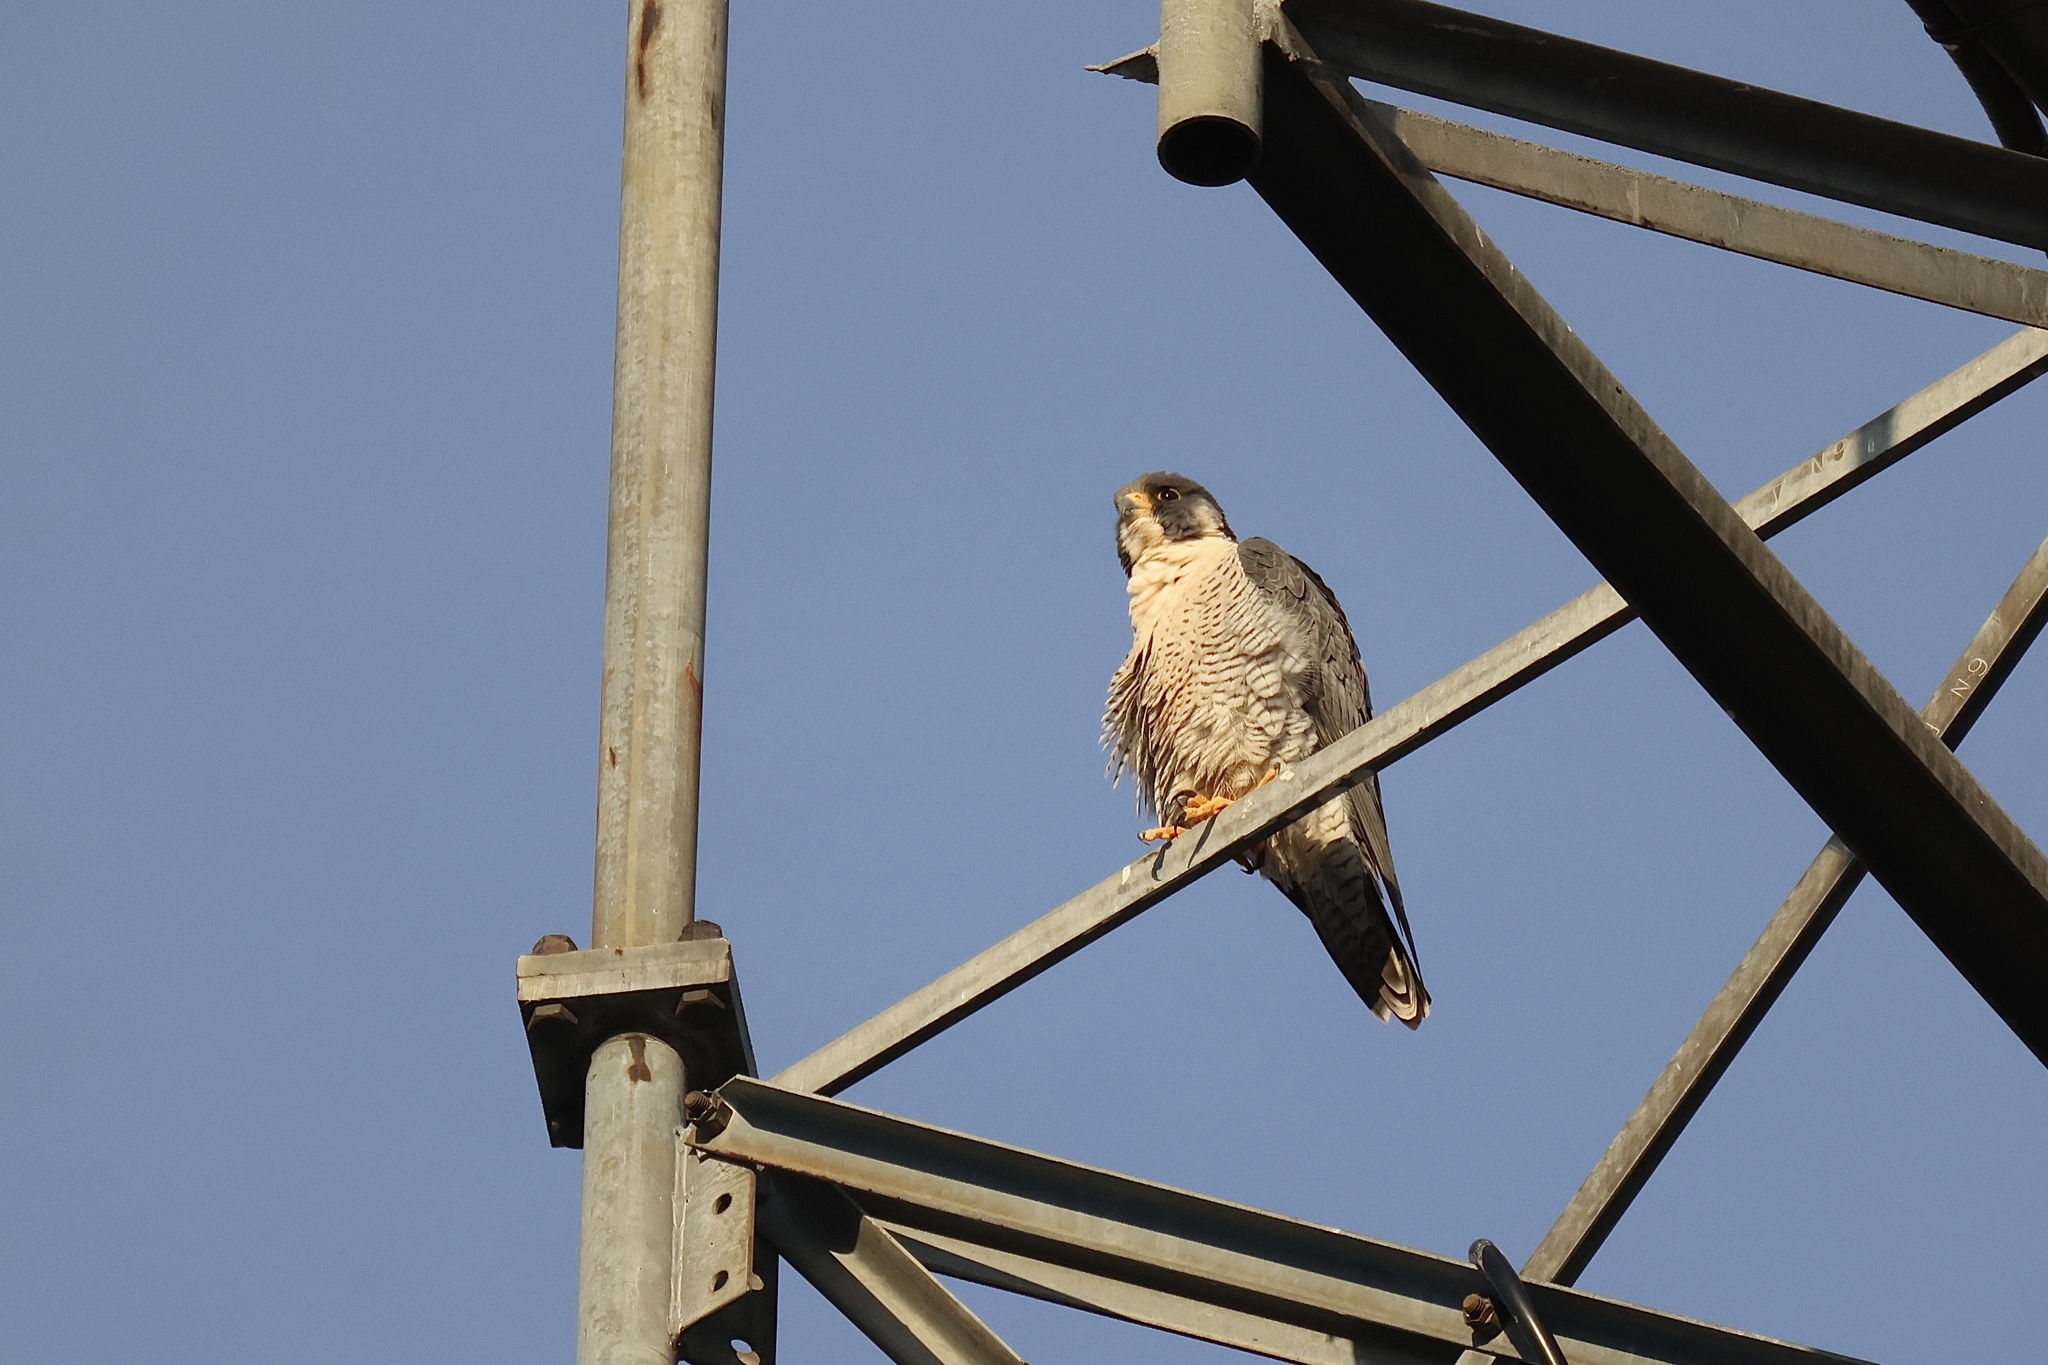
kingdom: Animalia
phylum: Chordata
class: Aves
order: Falconiformes
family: Falconidae
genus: Falco
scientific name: Falco peregrinus
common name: Peregrine falcon
